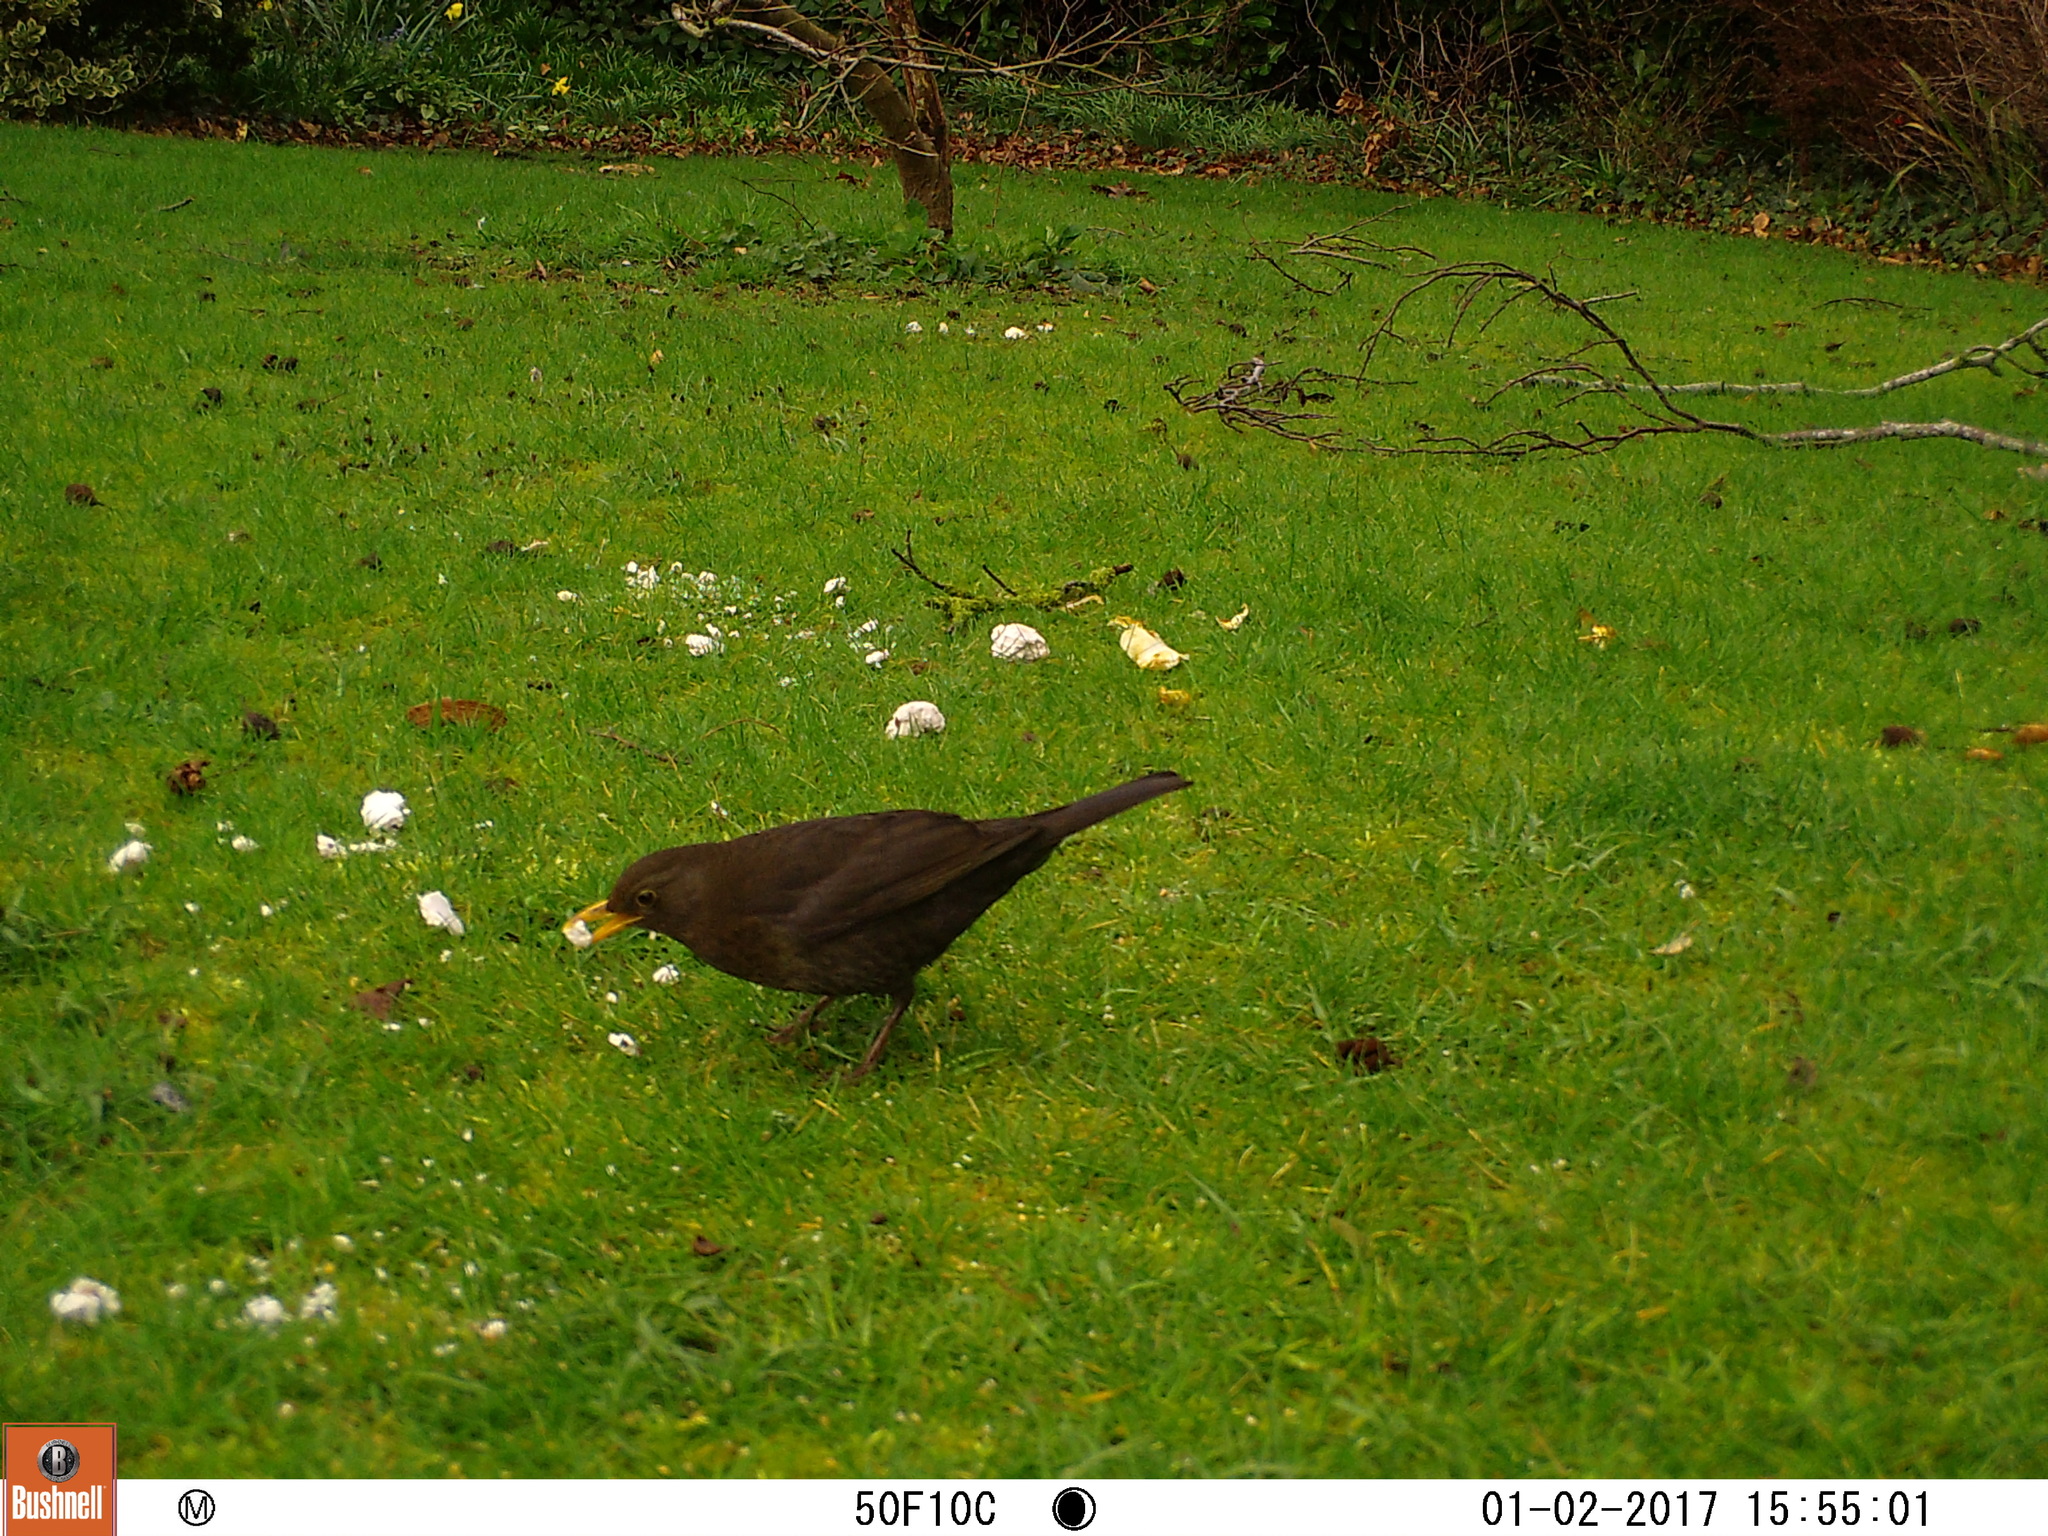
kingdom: Animalia
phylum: Chordata
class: Aves
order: Passeriformes
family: Turdidae
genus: Turdus
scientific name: Turdus merula
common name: Common blackbird
